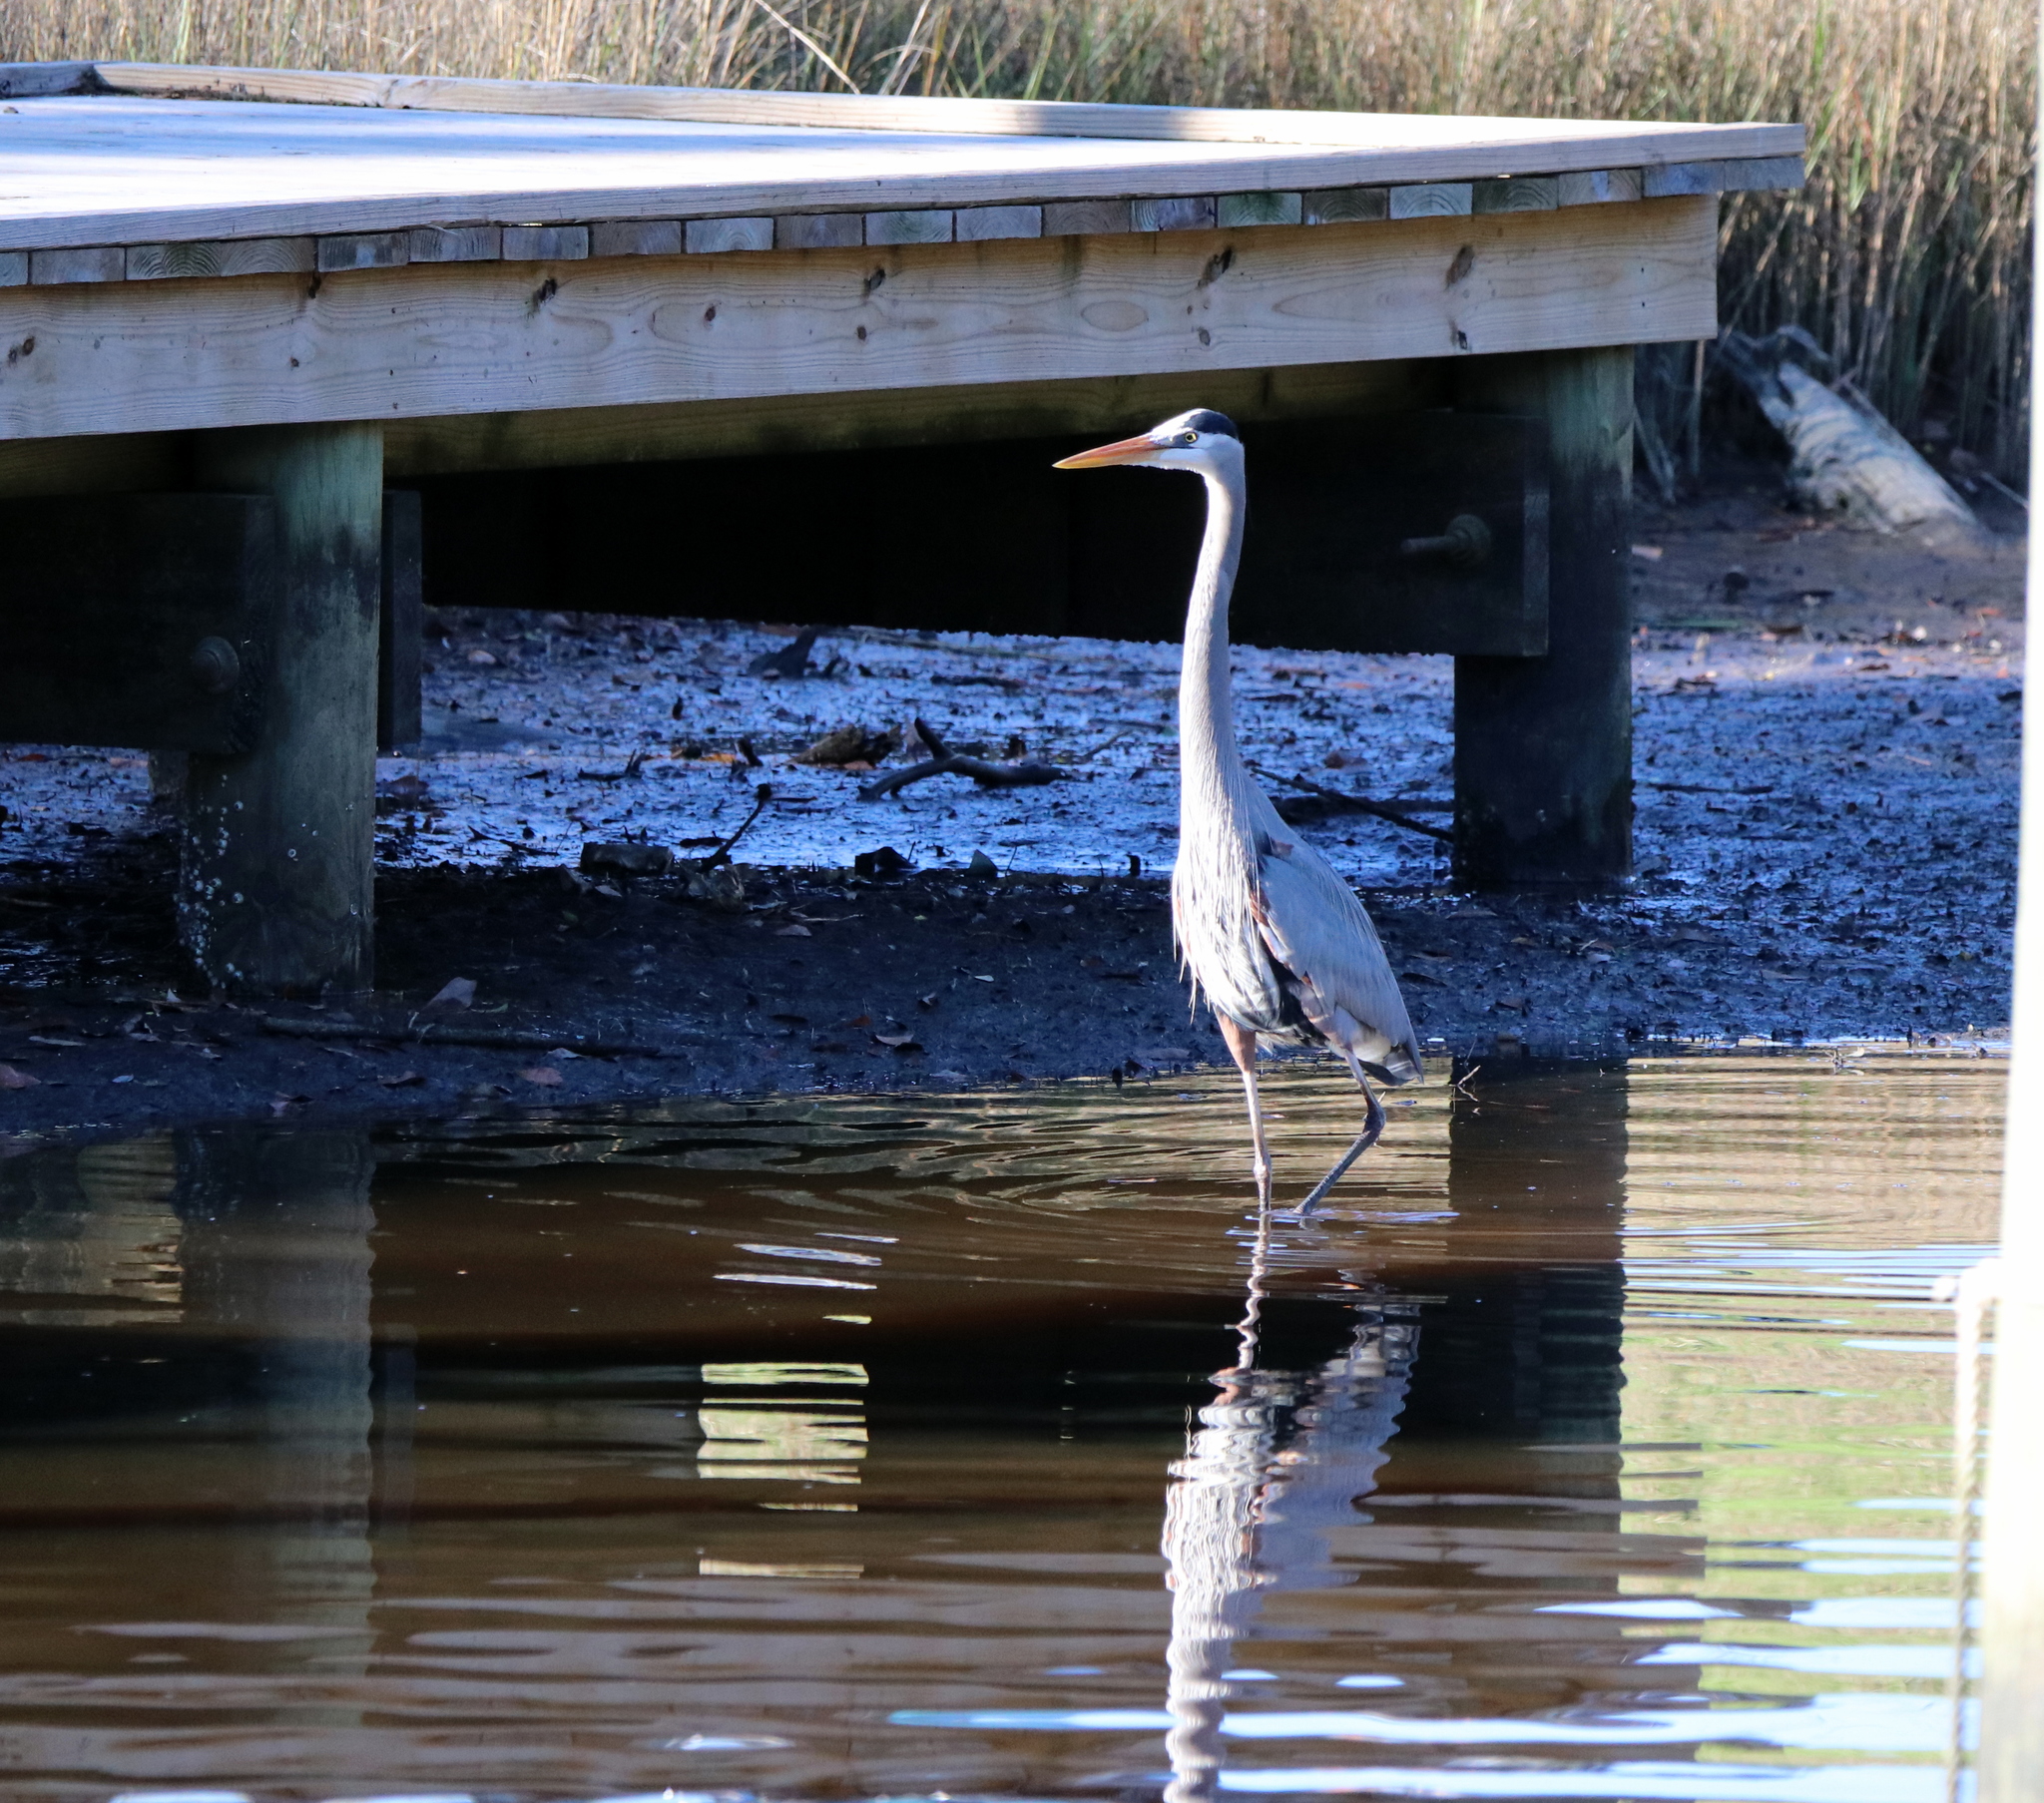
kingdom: Animalia
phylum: Chordata
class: Aves
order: Pelecaniformes
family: Ardeidae
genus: Ardea
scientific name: Ardea herodias
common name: Great blue heron
